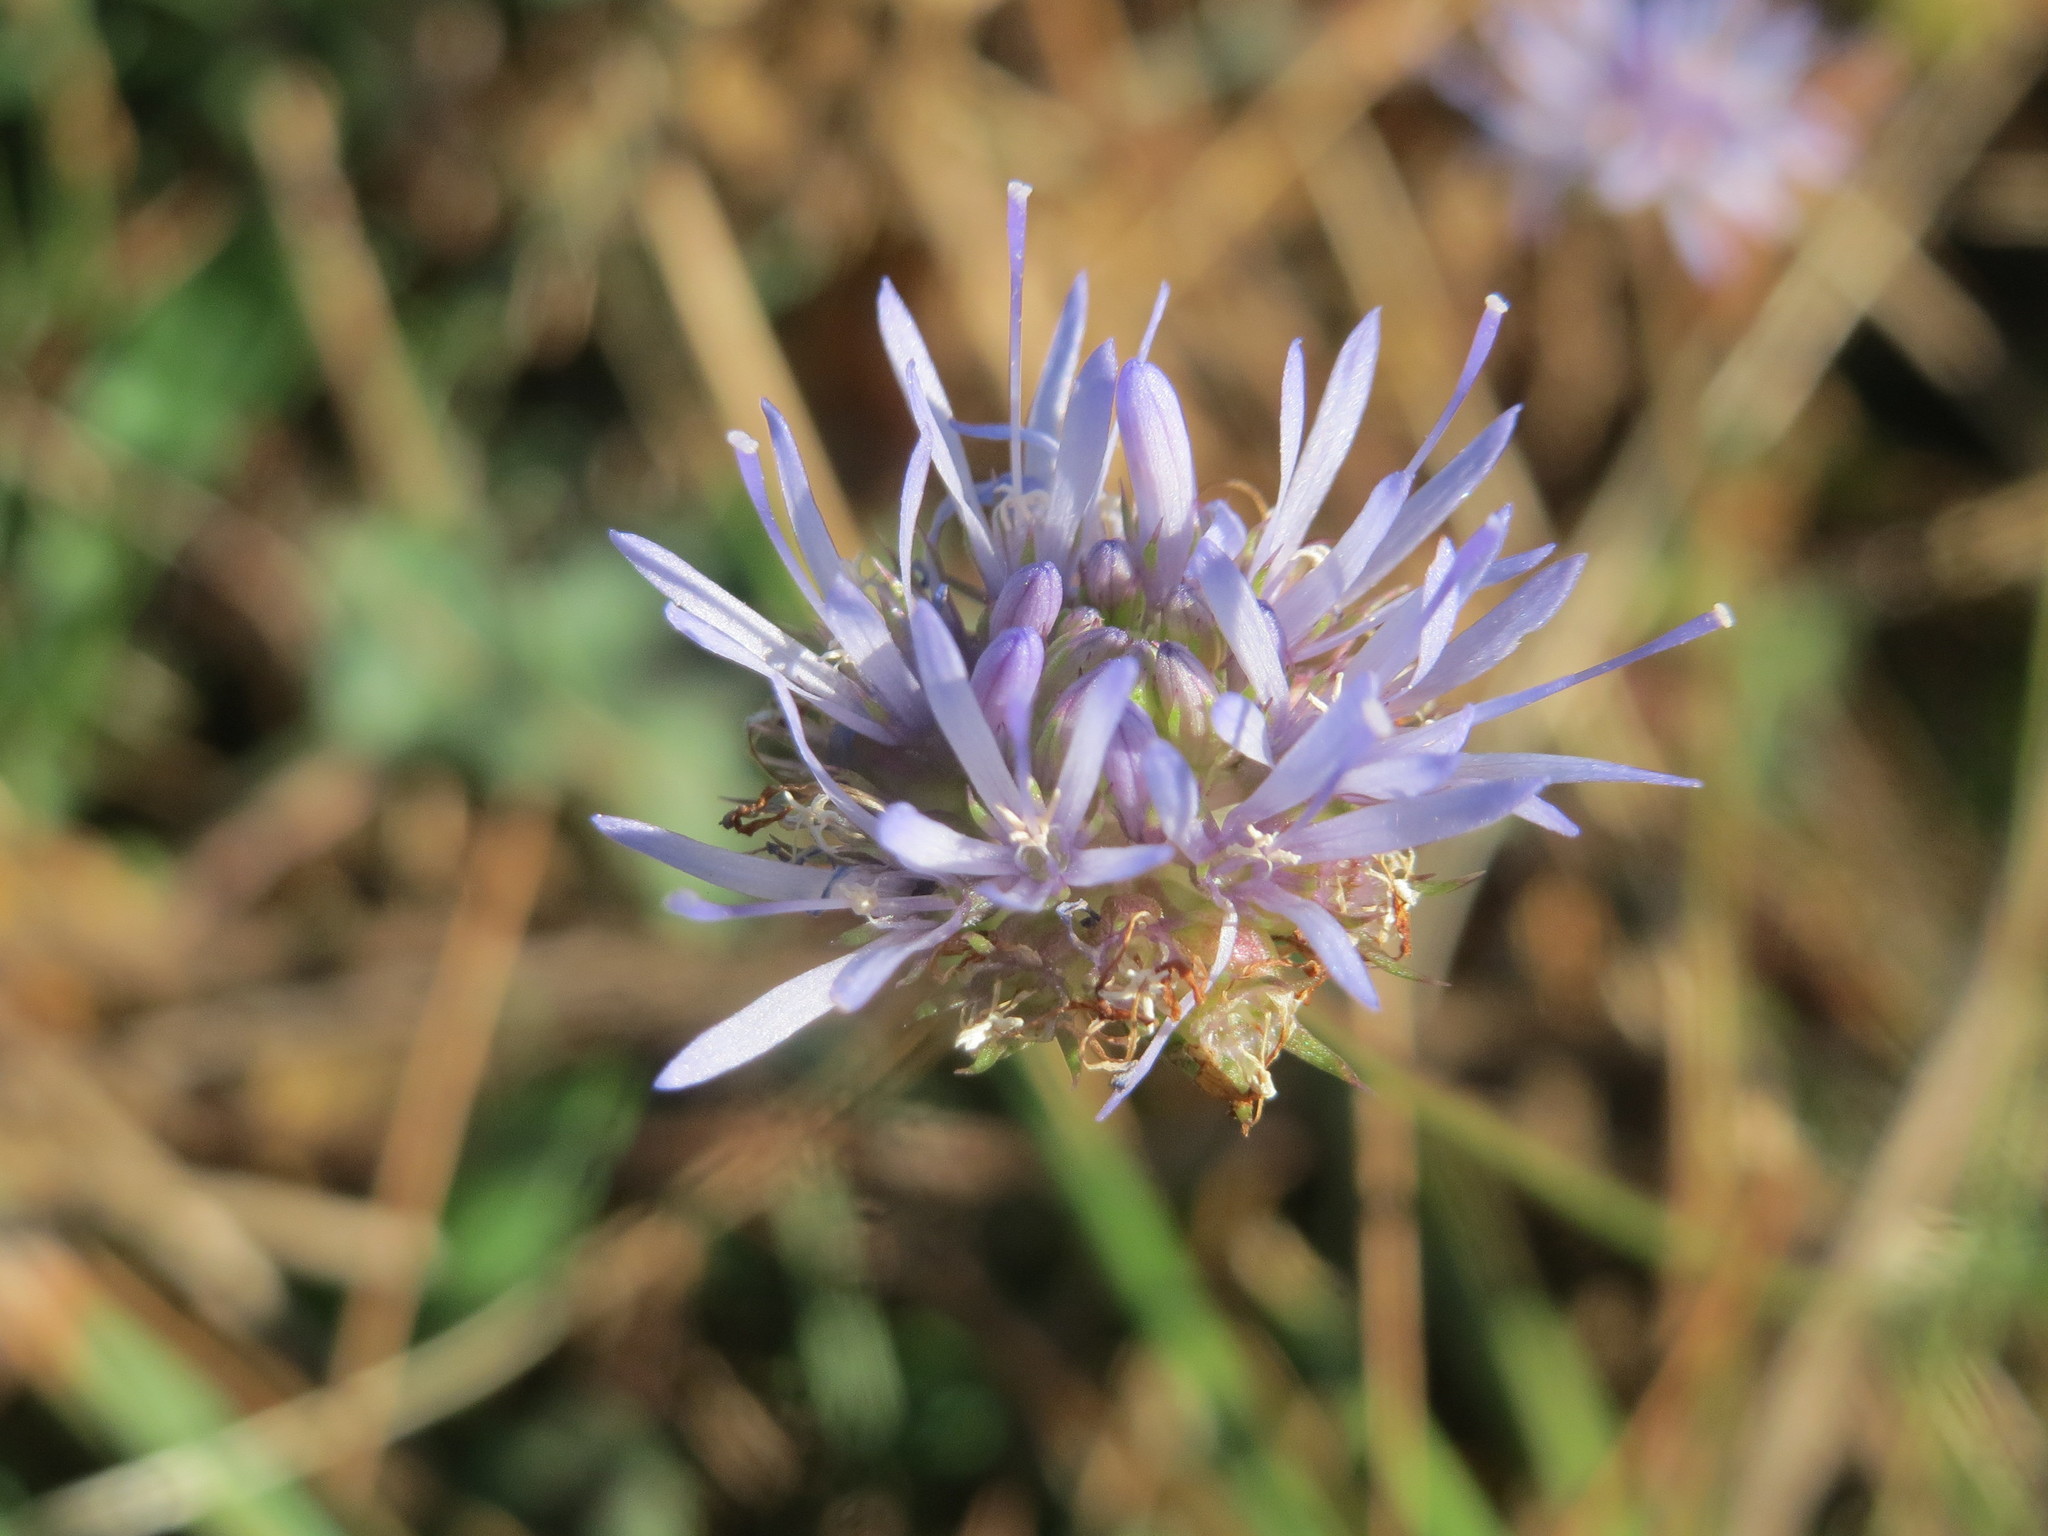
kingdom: Plantae
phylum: Tracheophyta
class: Magnoliopsida
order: Asterales
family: Campanulaceae
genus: Jasione
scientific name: Jasione montana
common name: Sheep's-bit
